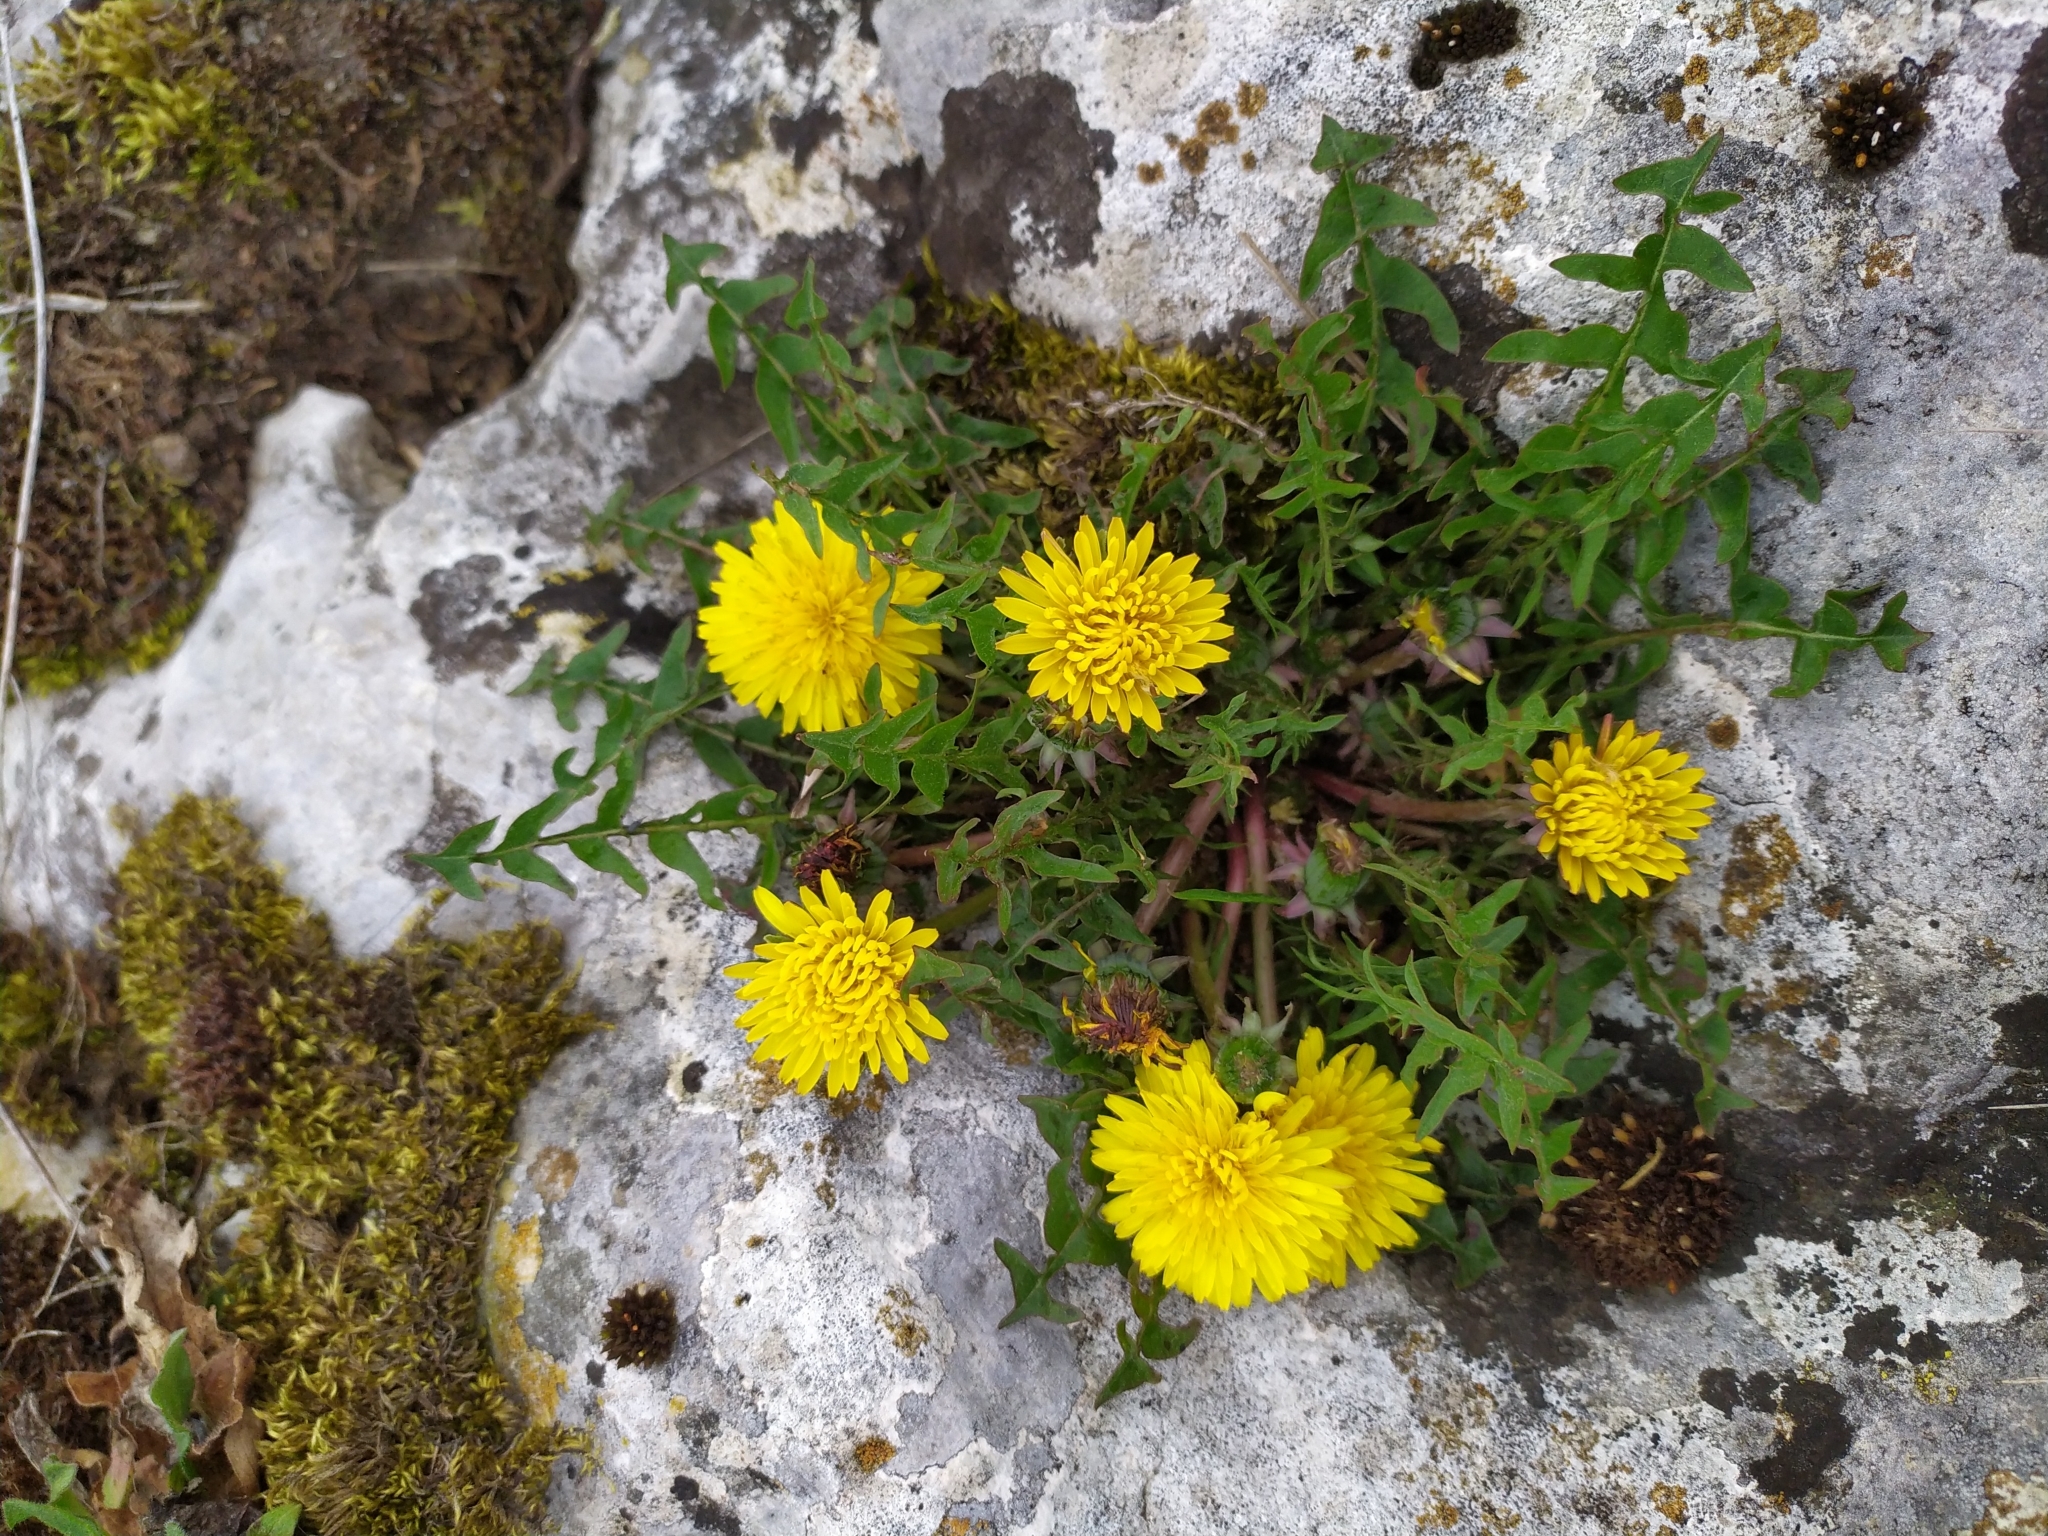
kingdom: Plantae
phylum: Tracheophyta
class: Magnoliopsida
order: Asterales
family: Asteraceae
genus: Taraxacum
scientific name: Taraxacum officinale
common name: Common dandelion
